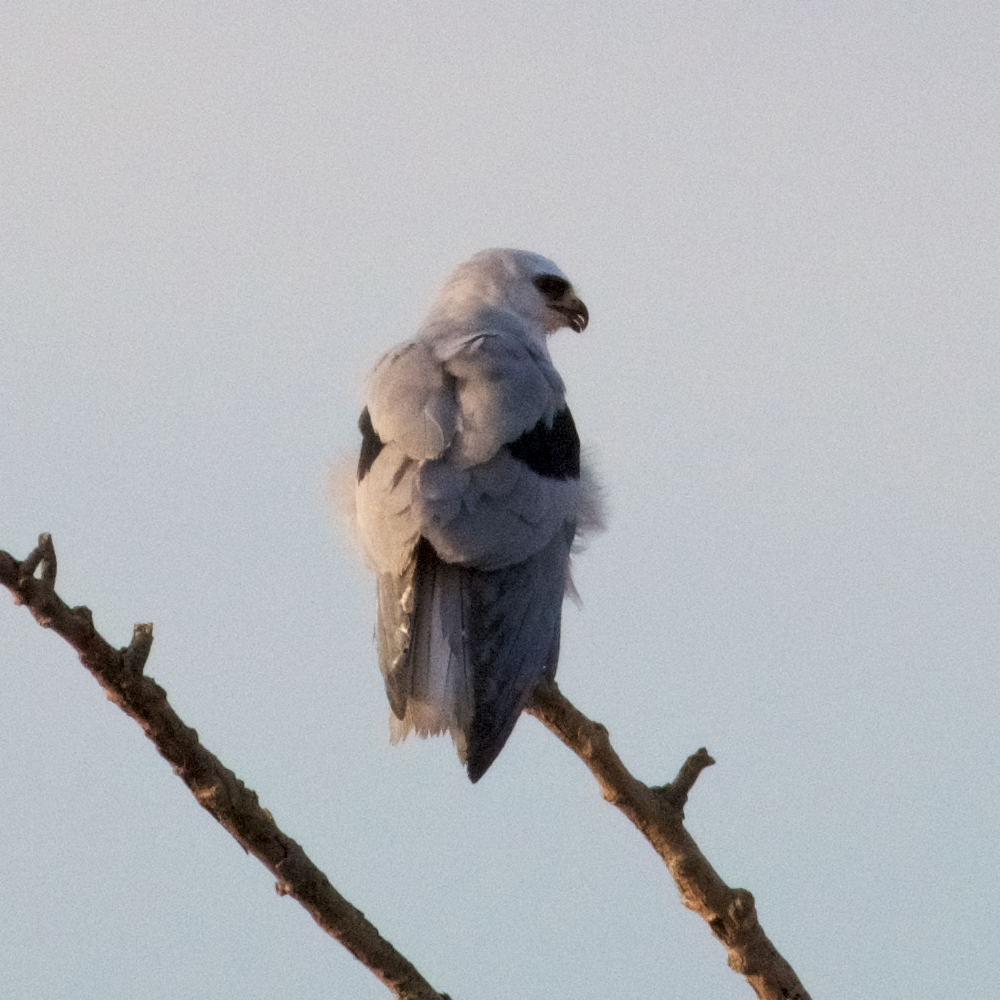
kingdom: Animalia
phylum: Chordata
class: Aves
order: Accipitriformes
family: Accipitridae
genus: Elanus
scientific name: Elanus leucurus
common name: White-tailed kite
